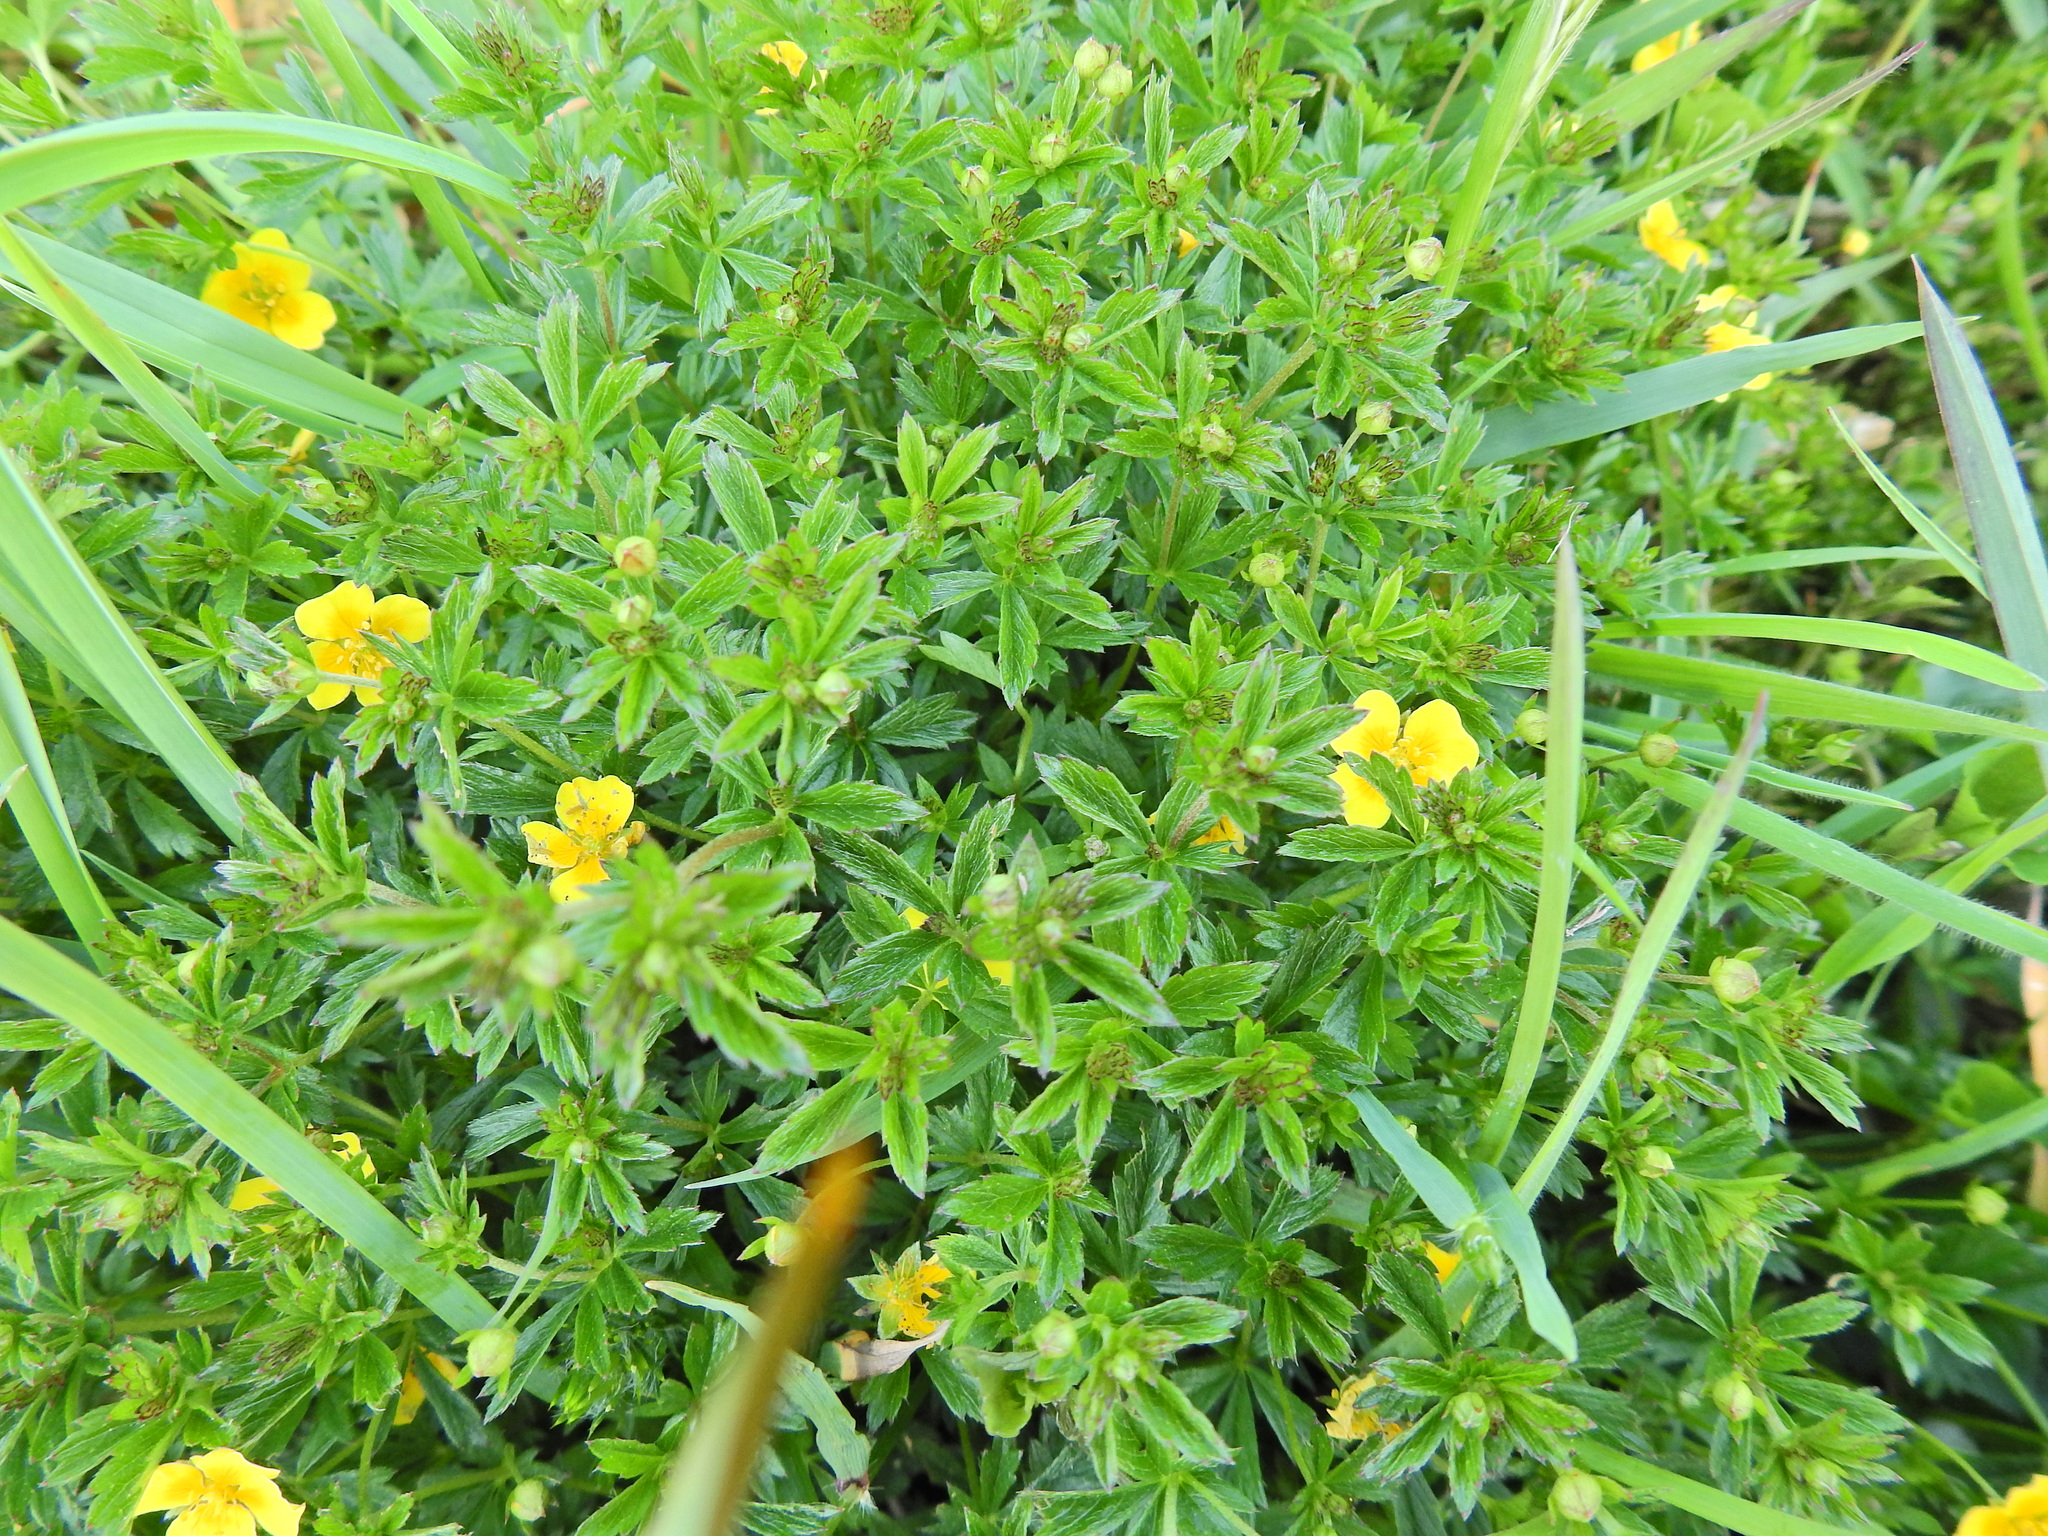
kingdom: Plantae
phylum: Tracheophyta
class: Magnoliopsida
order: Rosales
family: Rosaceae
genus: Potentilla
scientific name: Potentilla erecta
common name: Tormentil
